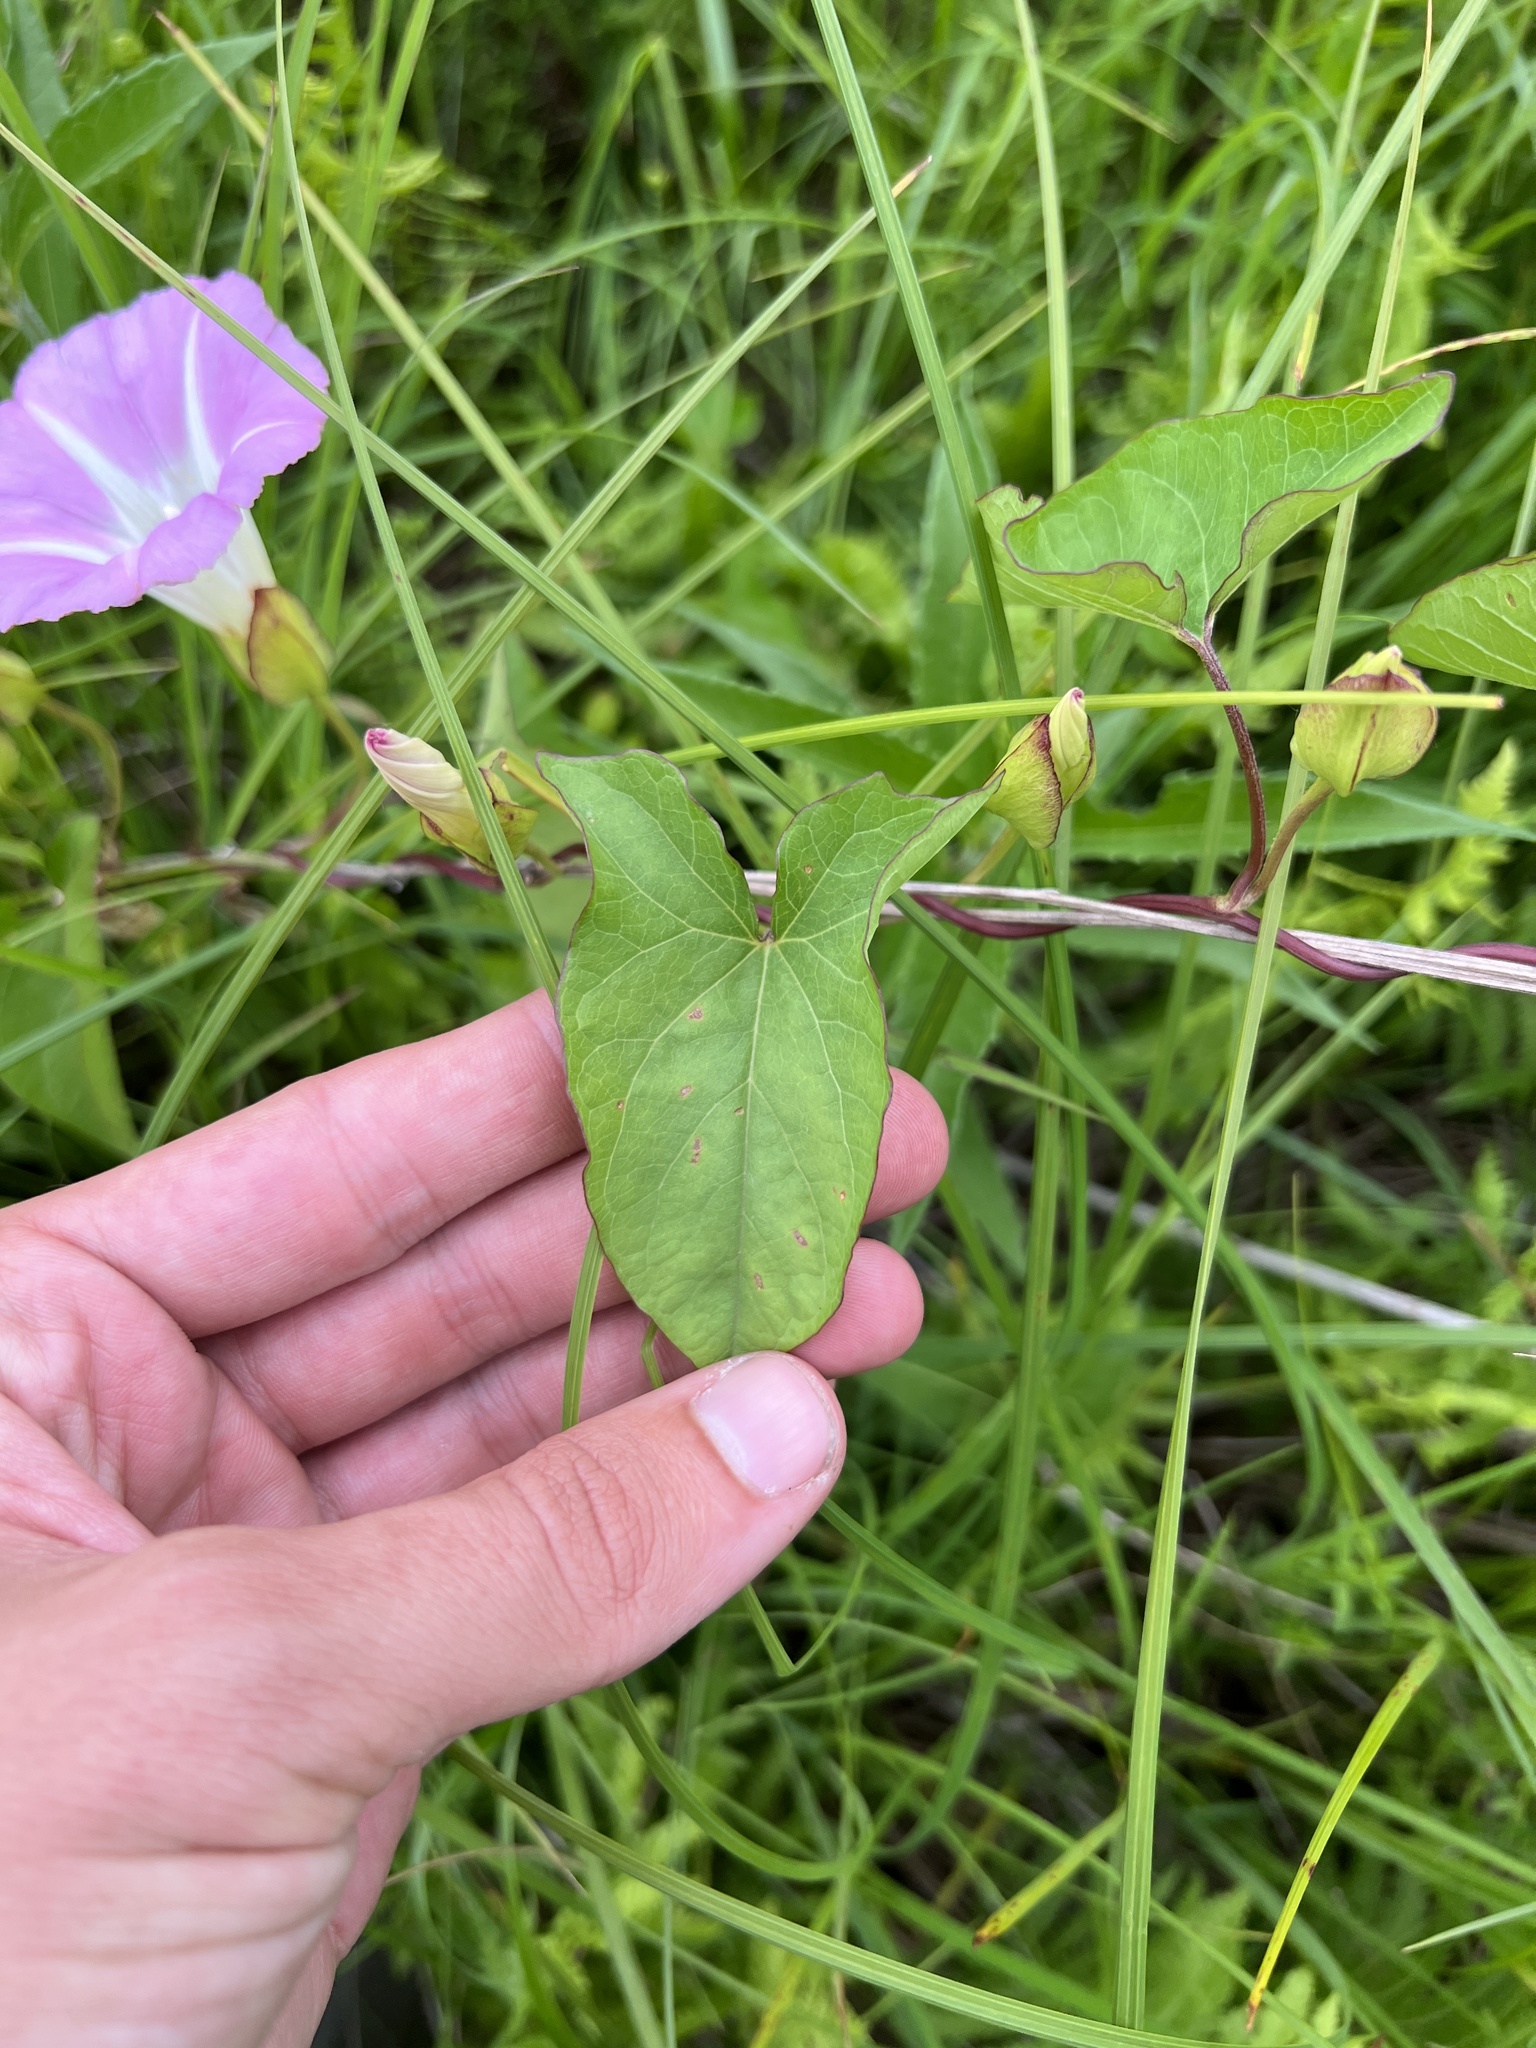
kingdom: Plantae
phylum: Tracheophyta
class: Magnoliopsida
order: Solanales
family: Convolvulaceae
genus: Calystegia
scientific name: Calystegia sepium
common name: Hedge bindweed
